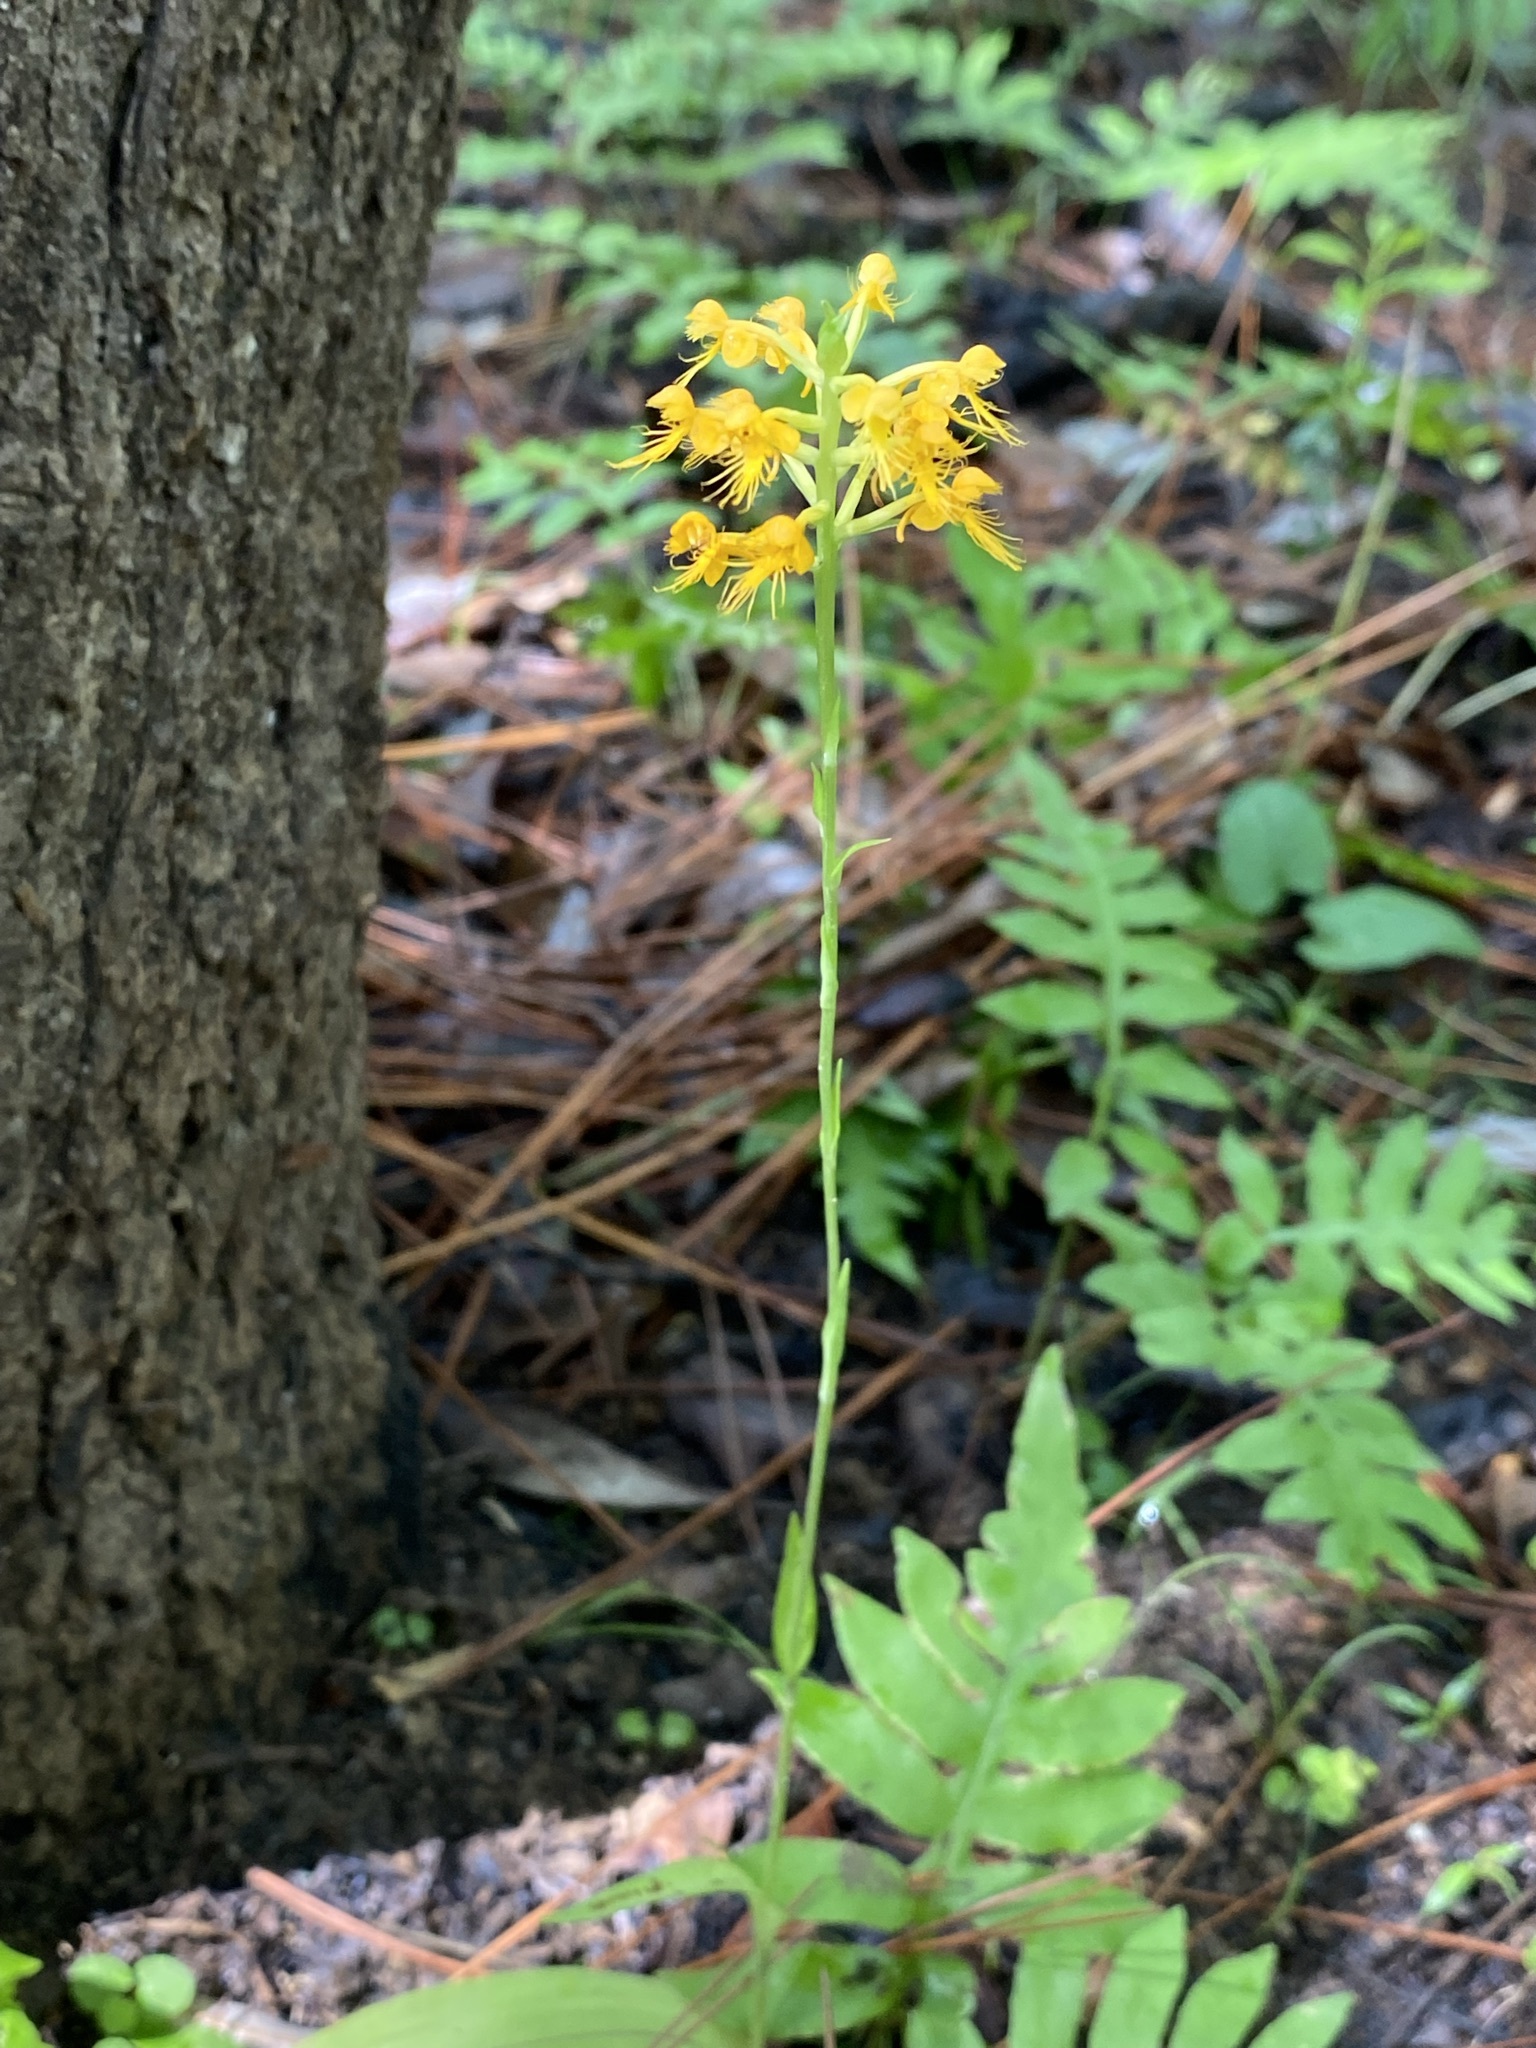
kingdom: Plantae
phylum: Tracheophyta
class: Liliopsida
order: Asparagales
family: Orchidaceae
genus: Platanthera
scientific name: Platanthera cristata
